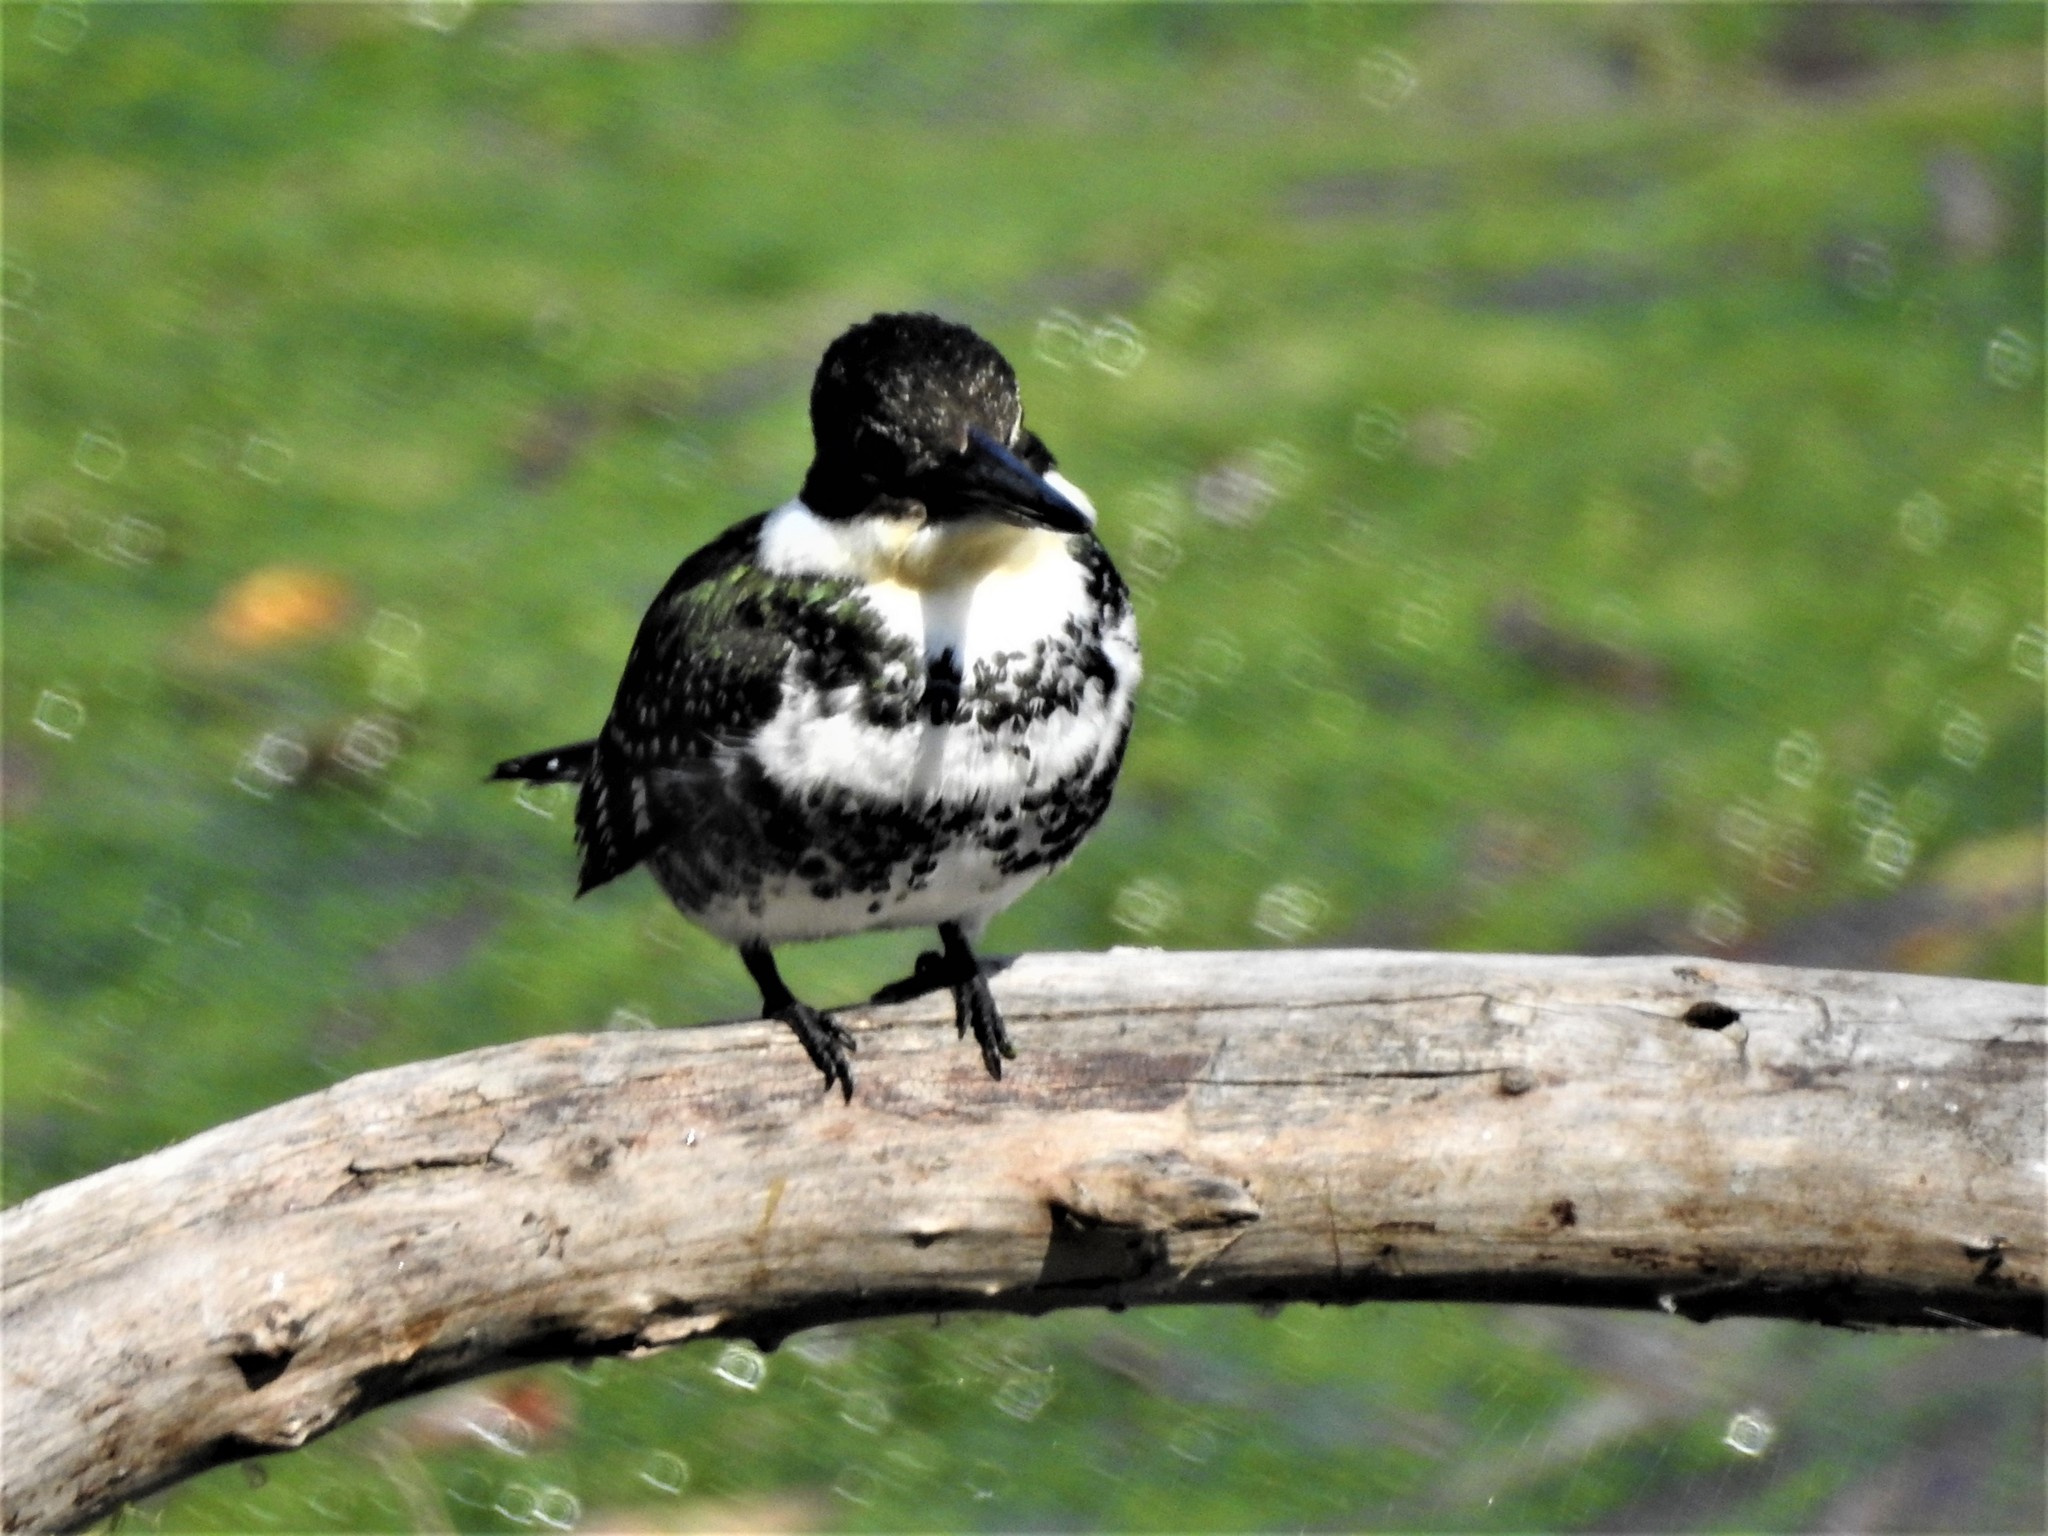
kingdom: Animalia
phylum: Chordata
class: Aves
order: Coraciiformes
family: Alcedinidae
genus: Chloroceryle
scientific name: Chloroceryle americana
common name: Green kingfisher
